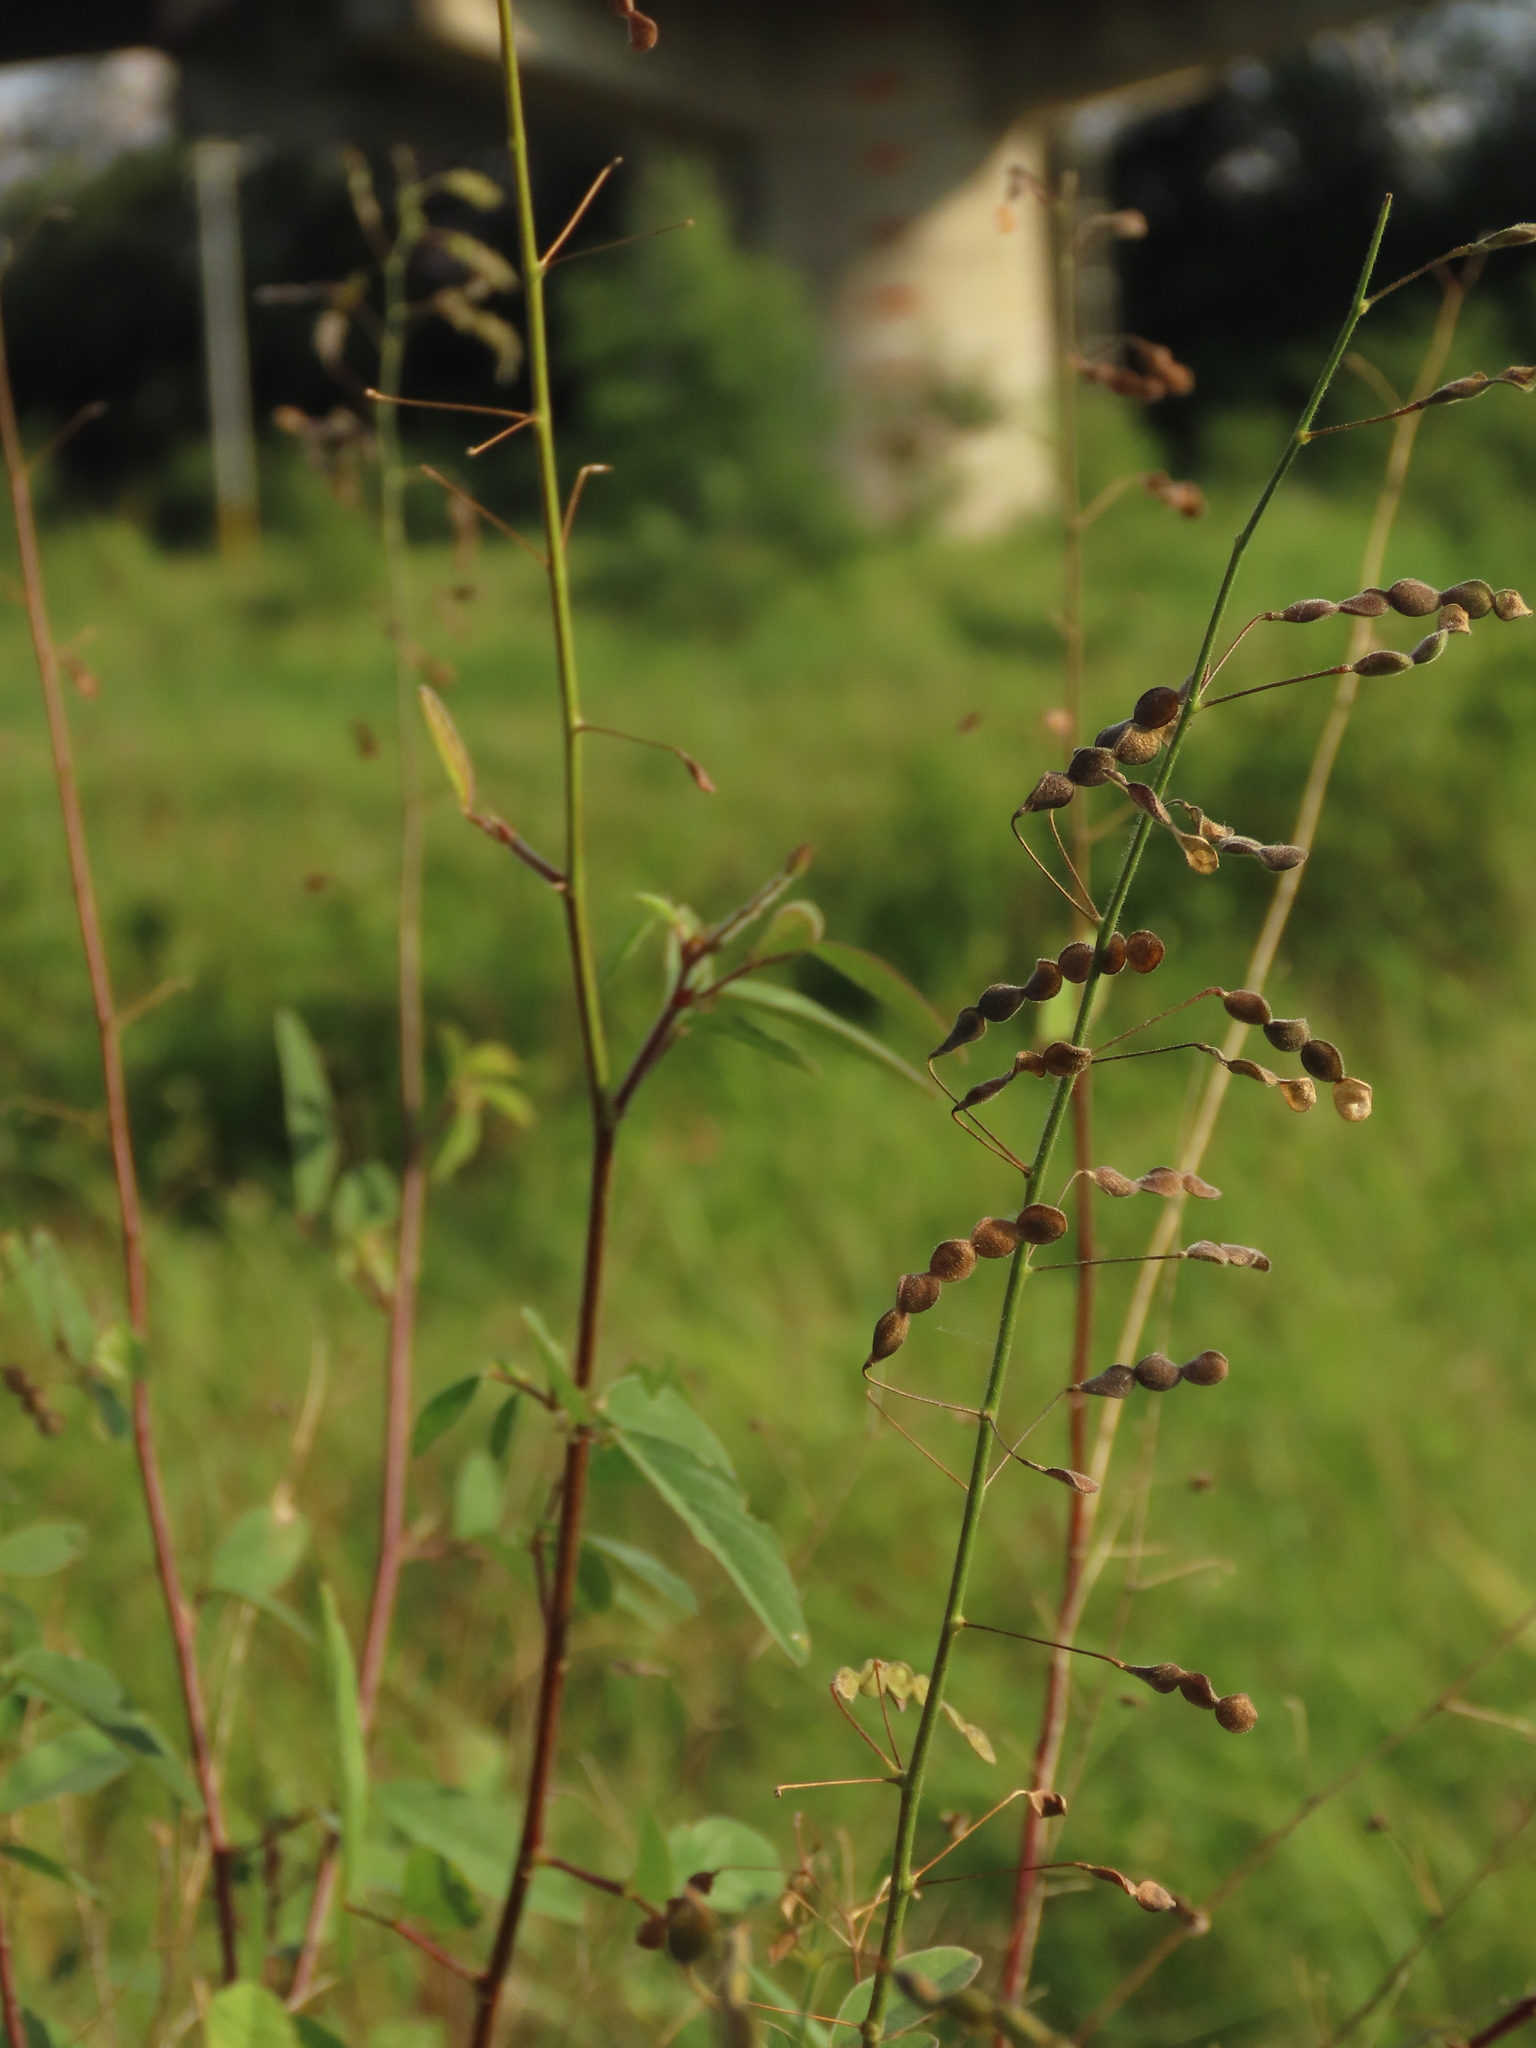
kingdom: Plantae
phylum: Tracheophyta
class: Magnoliopsida
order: Fabales
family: Fabaceae
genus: Desmodium
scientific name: Desmodium tortuosum
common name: Dixie ticktrefoil
